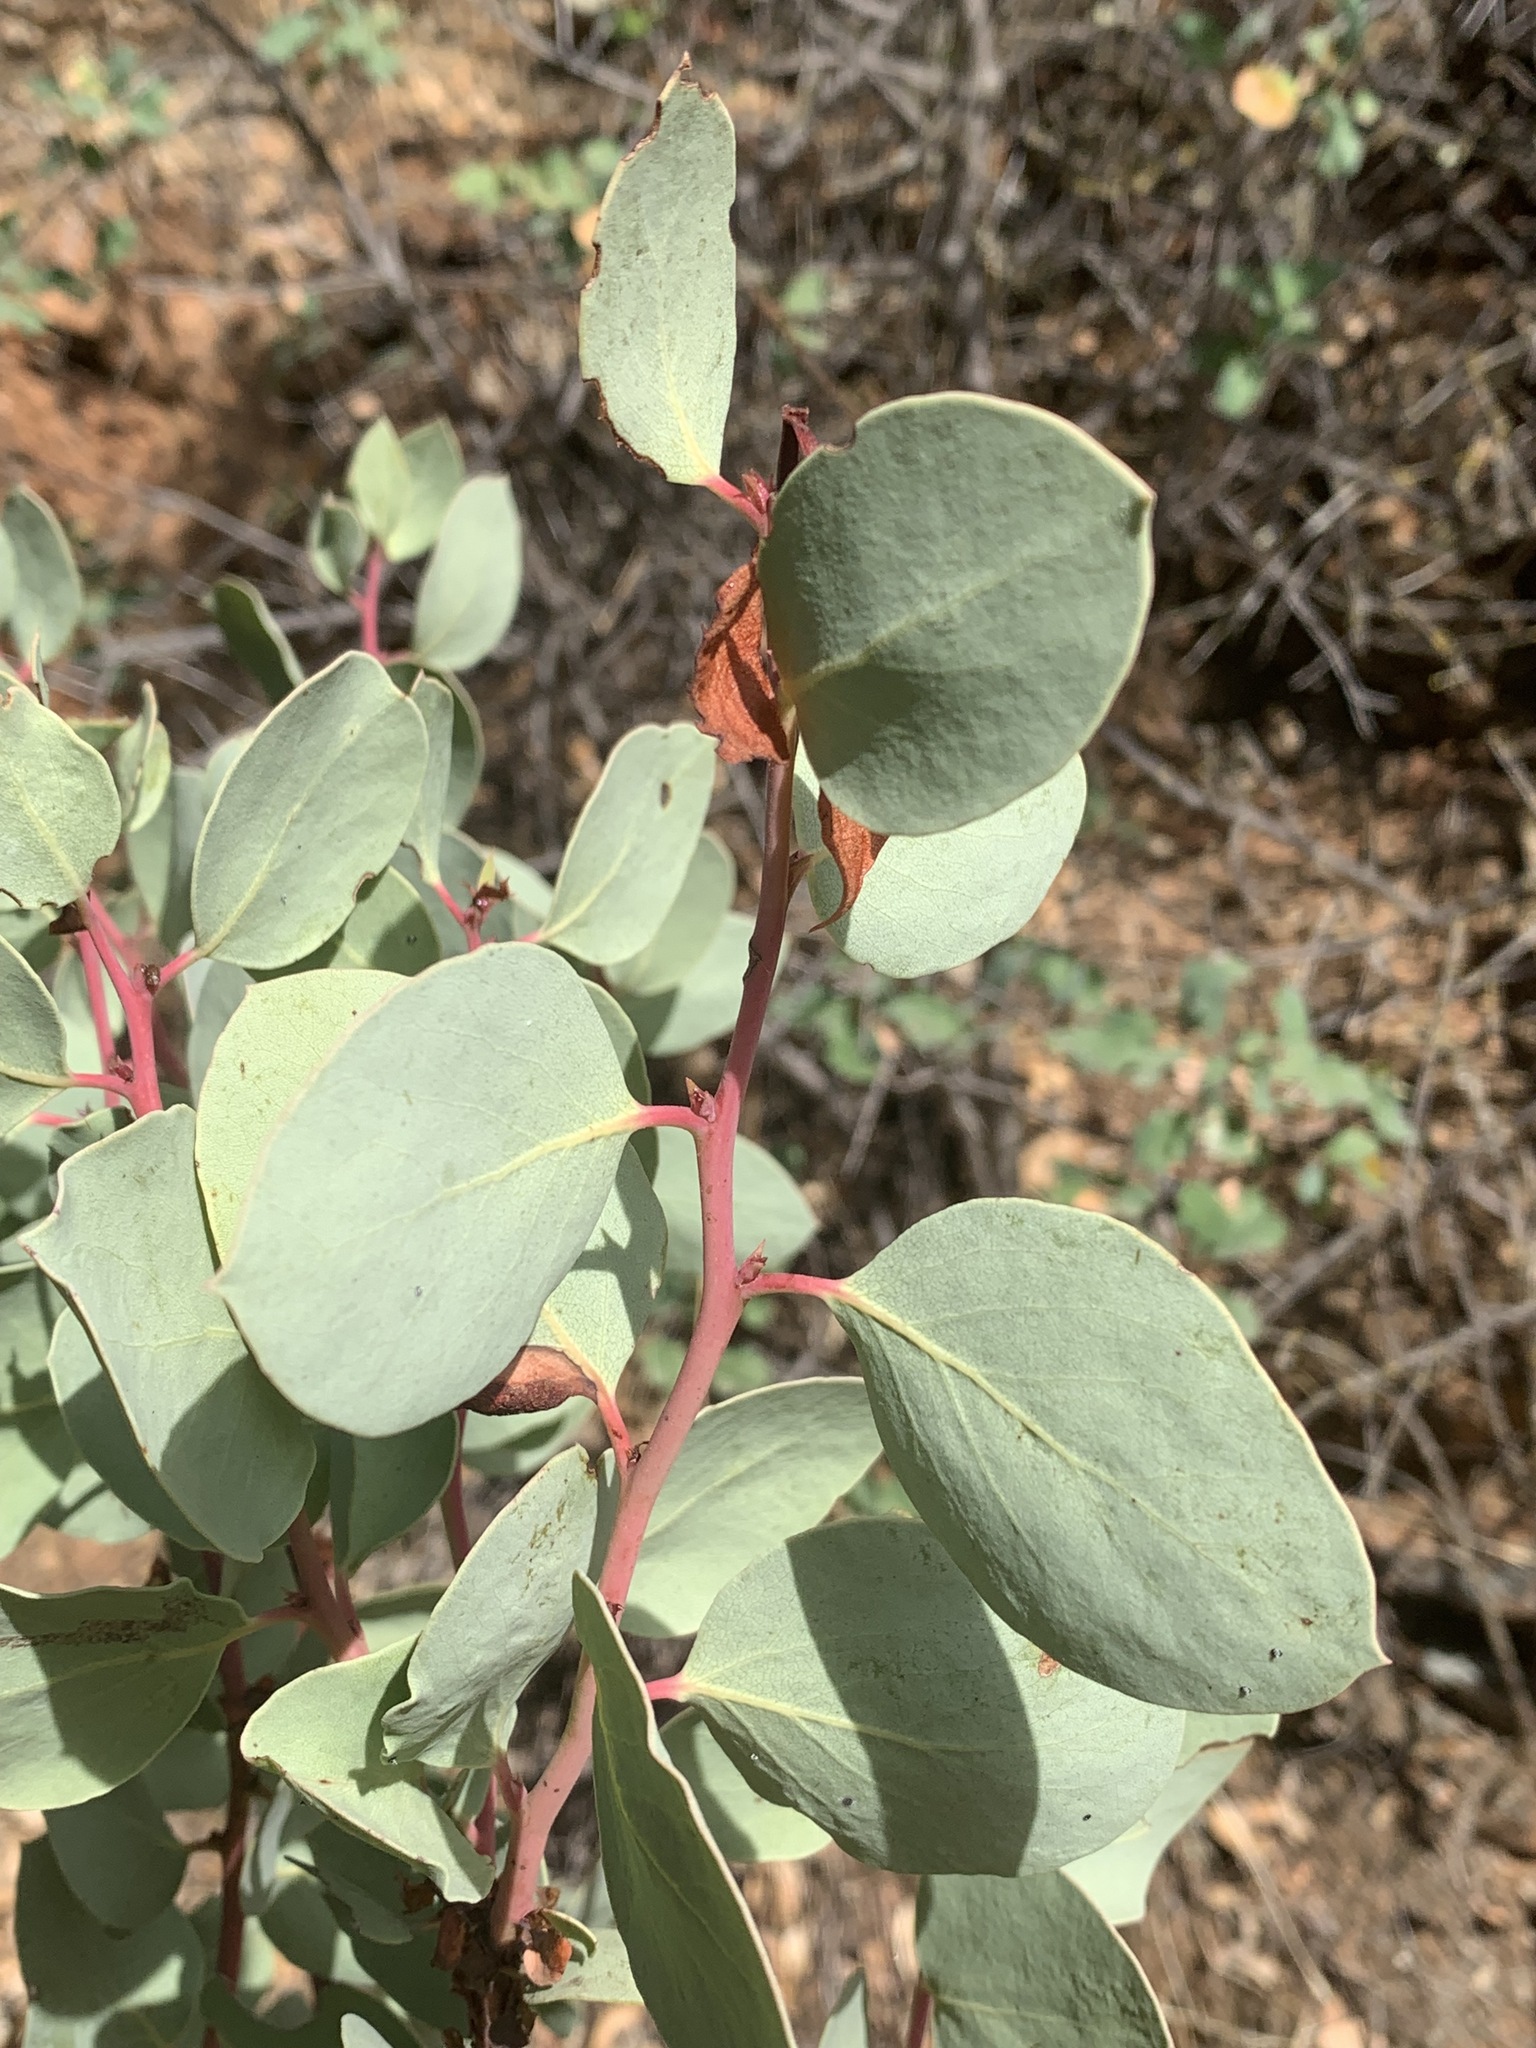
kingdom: Plantae
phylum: Tracheophyta
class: Magnoliopsida
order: Ericales
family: Ericaceae
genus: Arctostaphylos
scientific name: Arctostaphylos viscida
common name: White-leaf manzanita
